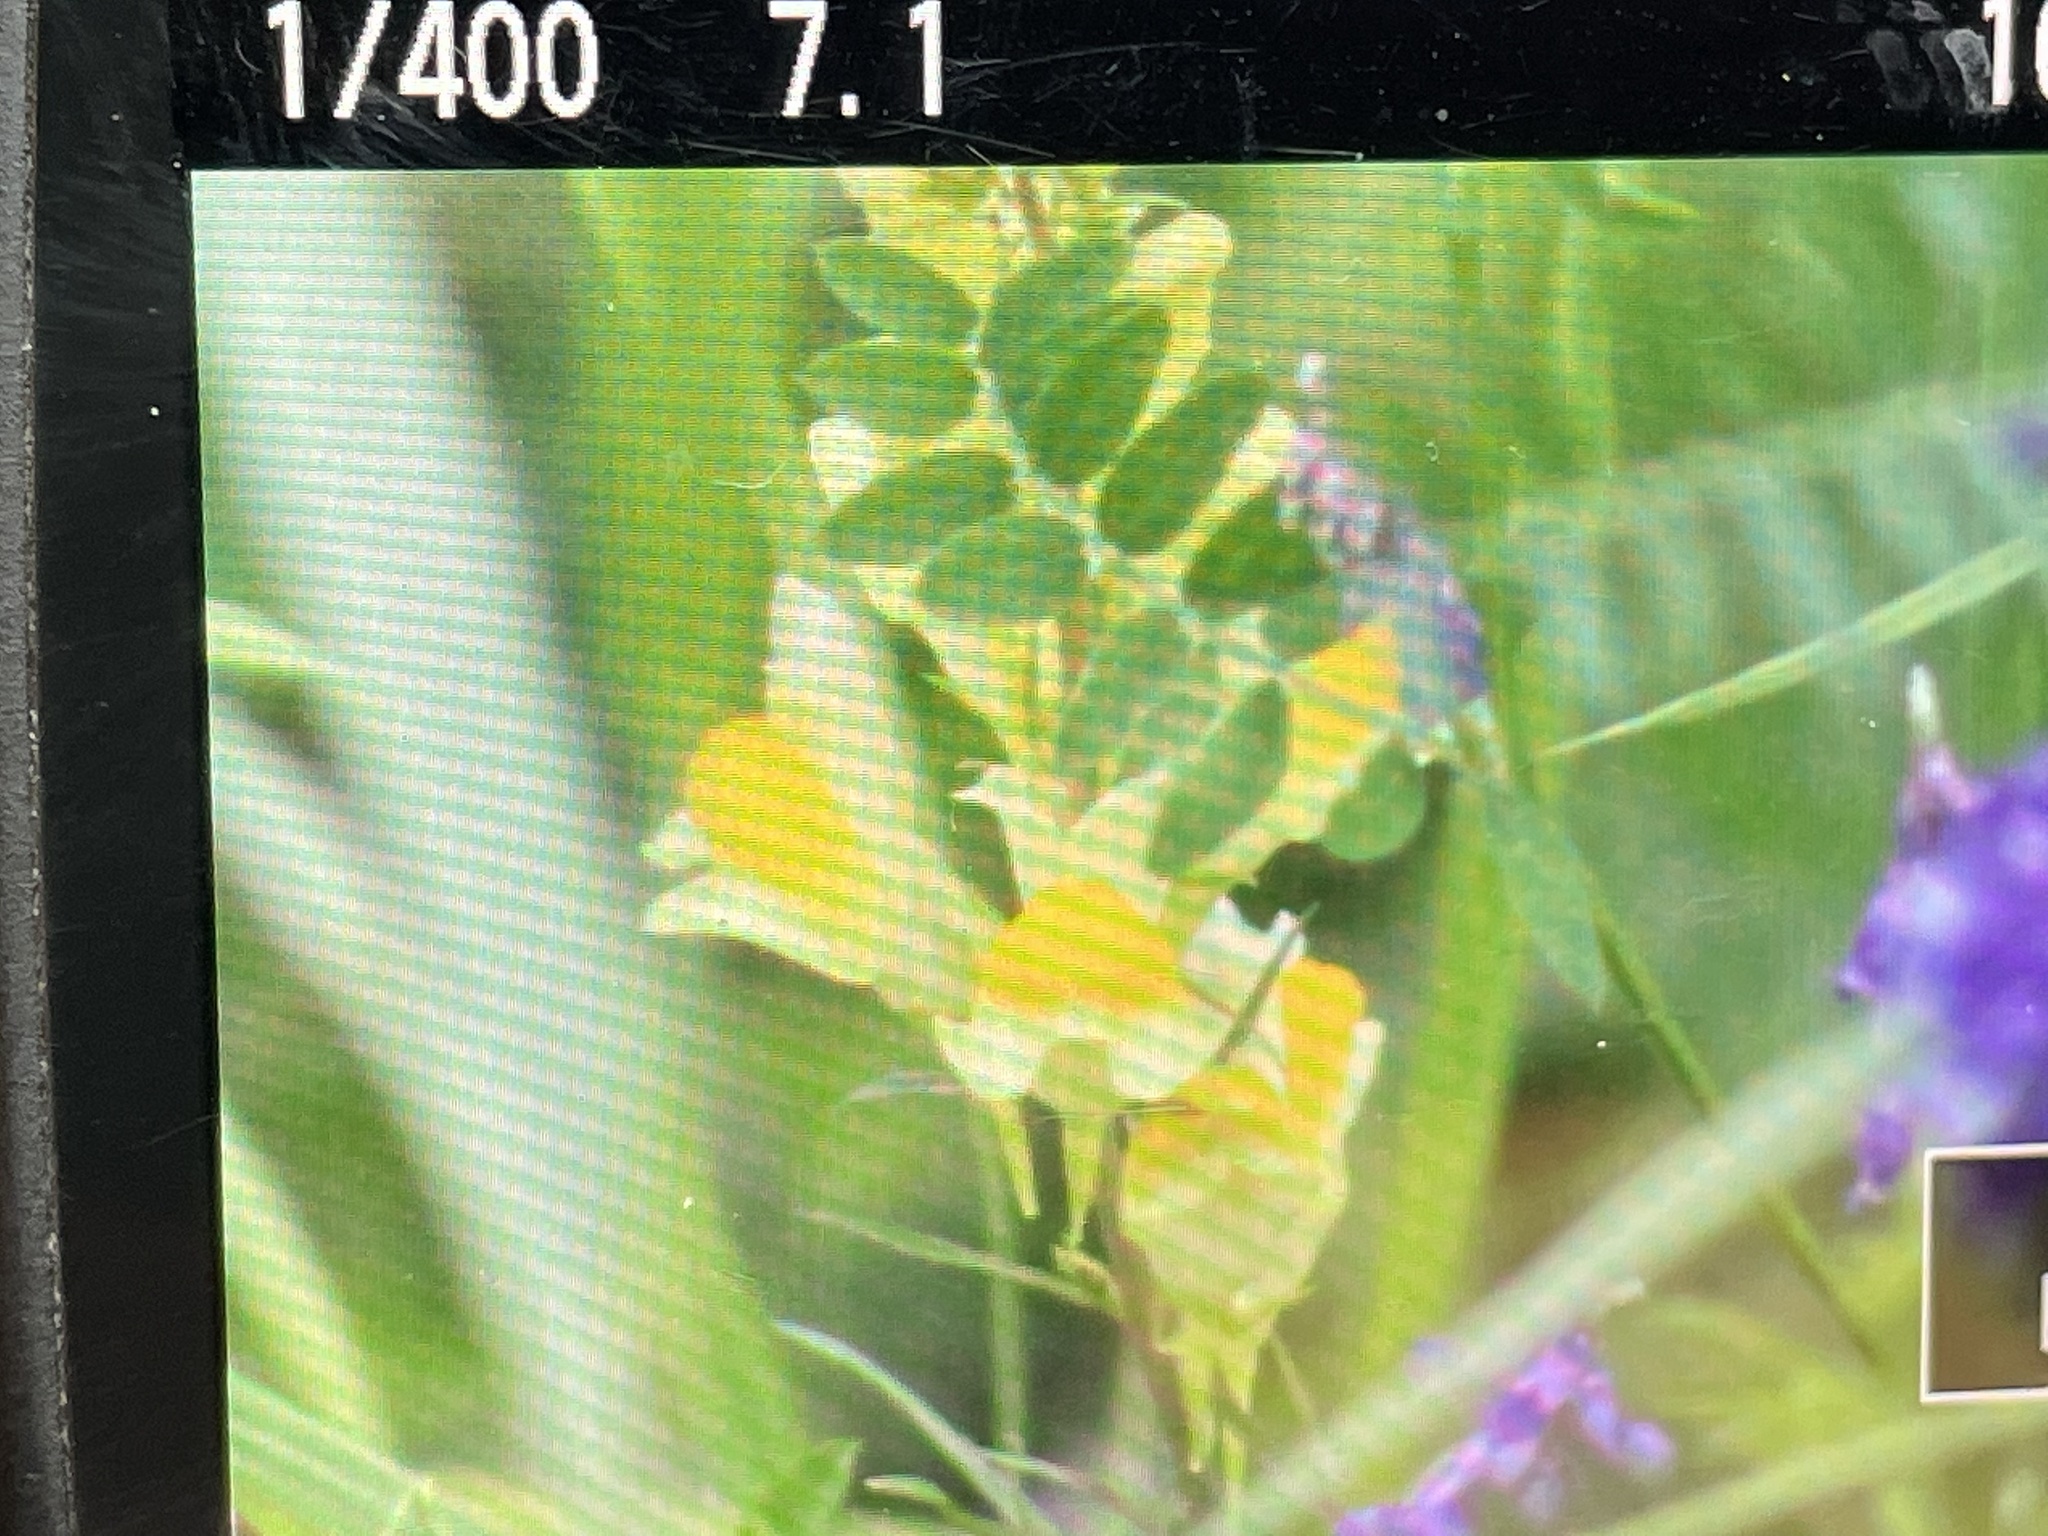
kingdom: Plantae
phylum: Tracheophyta
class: Magnoliopsida
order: Lamiales
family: Plantaginaceae
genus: Linaria
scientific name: Linaria vulgaris
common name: Butter and eggs
